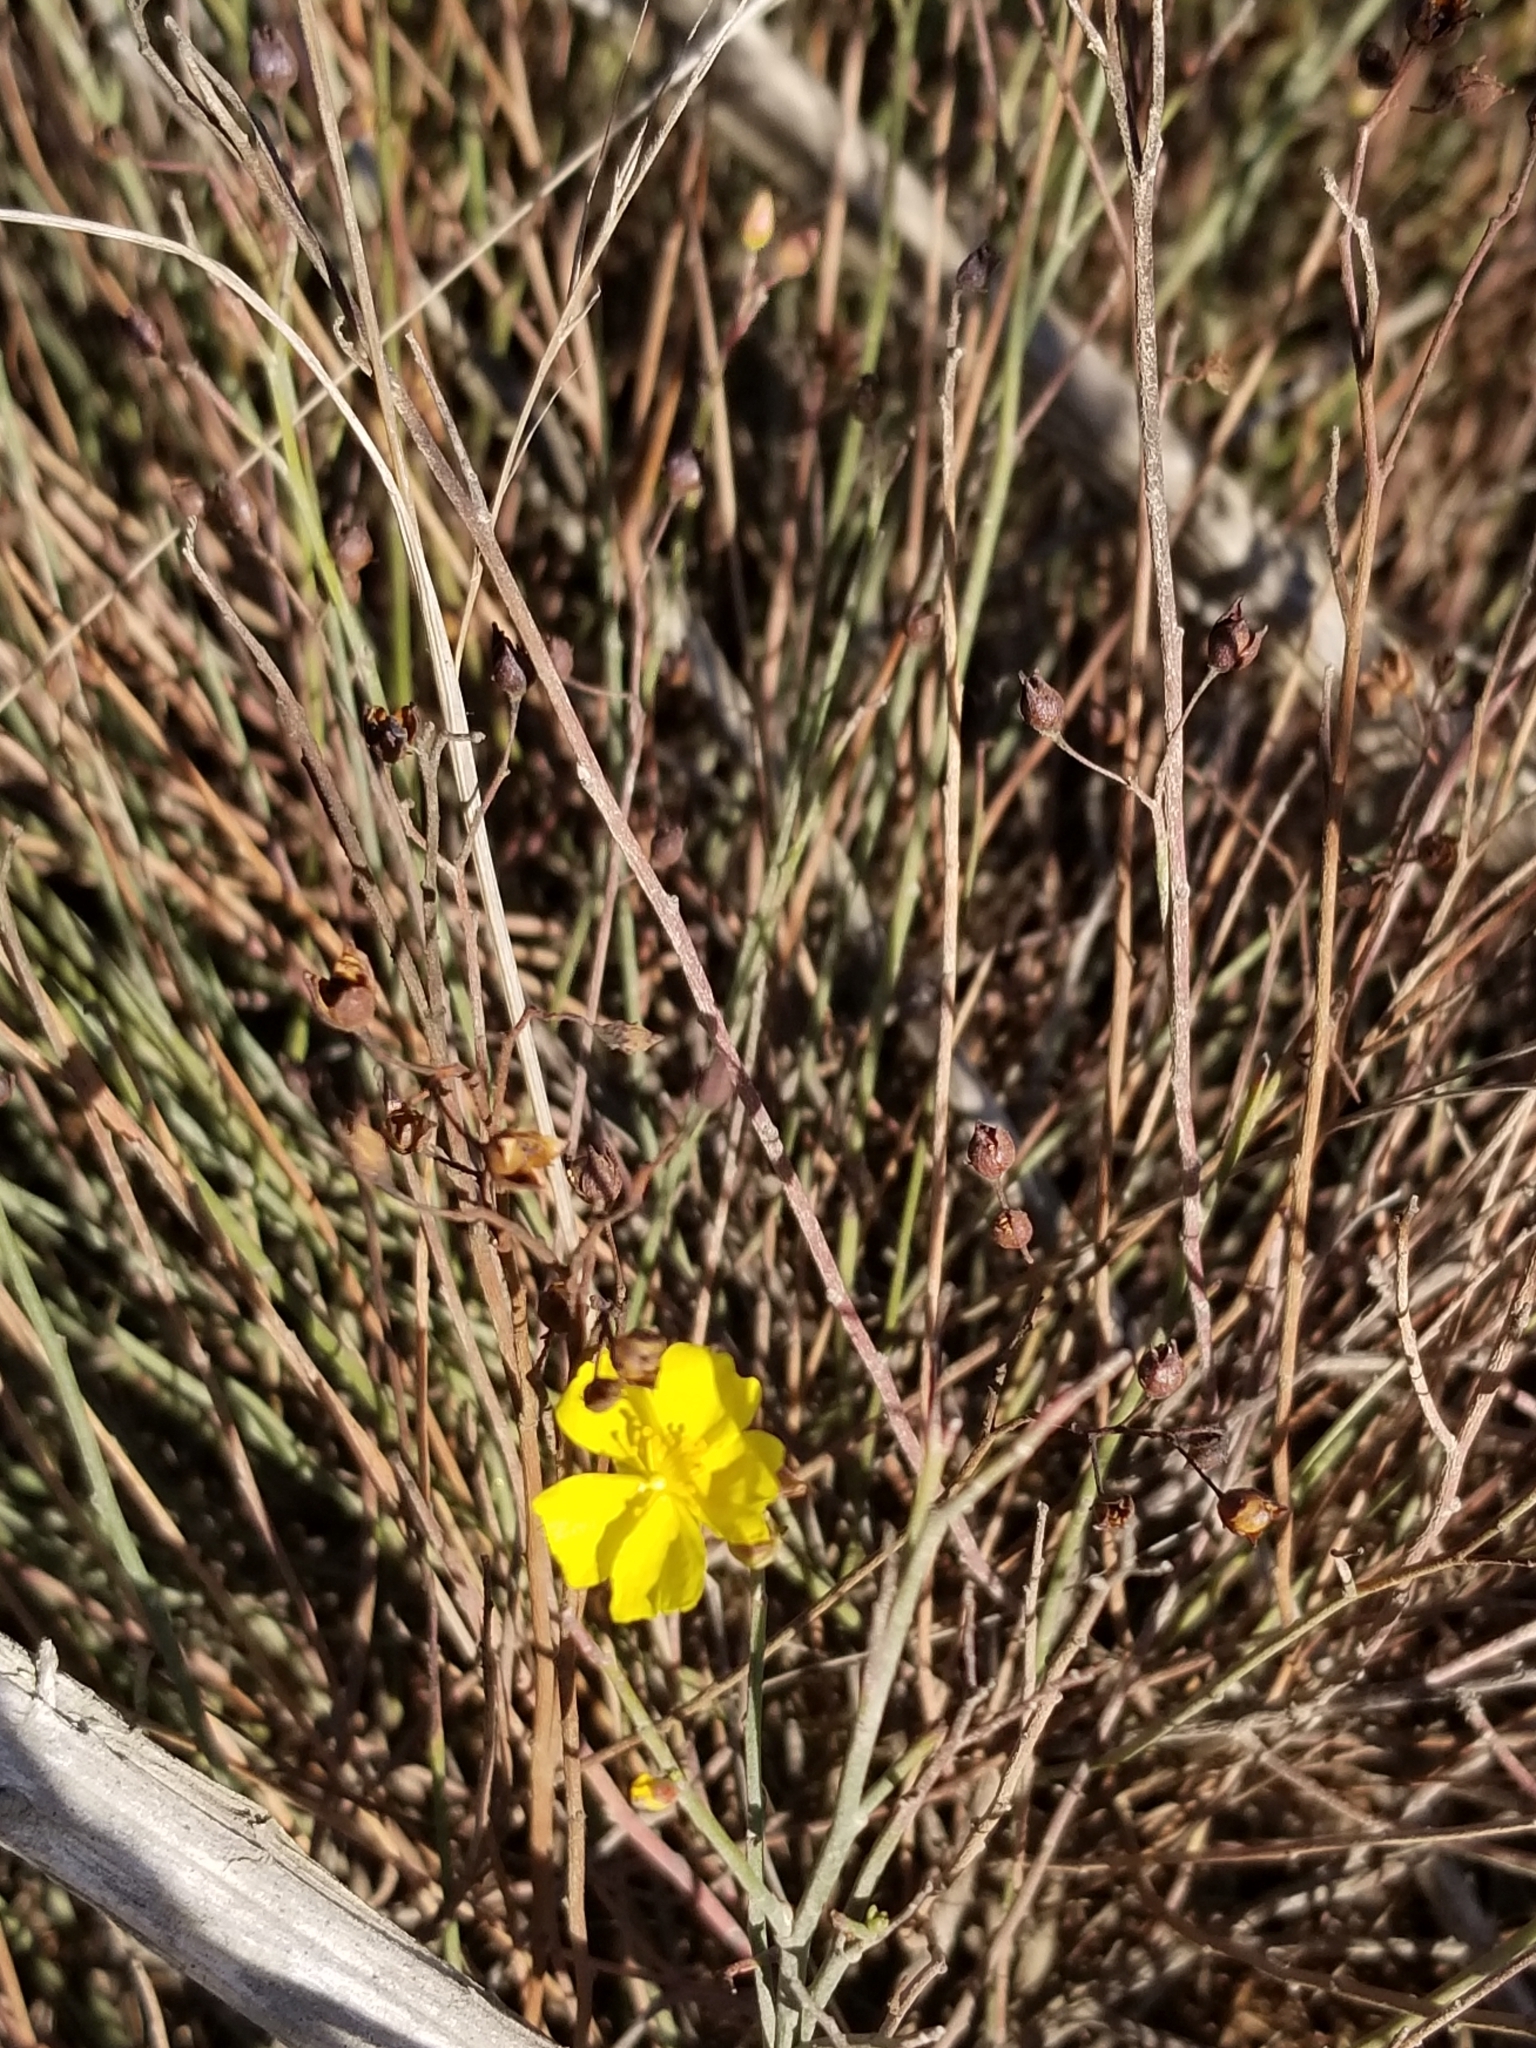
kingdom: Plantae
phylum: Tracheophyta
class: Magnoliopsida
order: Malvales
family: Cistaceae
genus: Crocanthemum
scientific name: Crocanthemum scoparium
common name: Broom-rose
